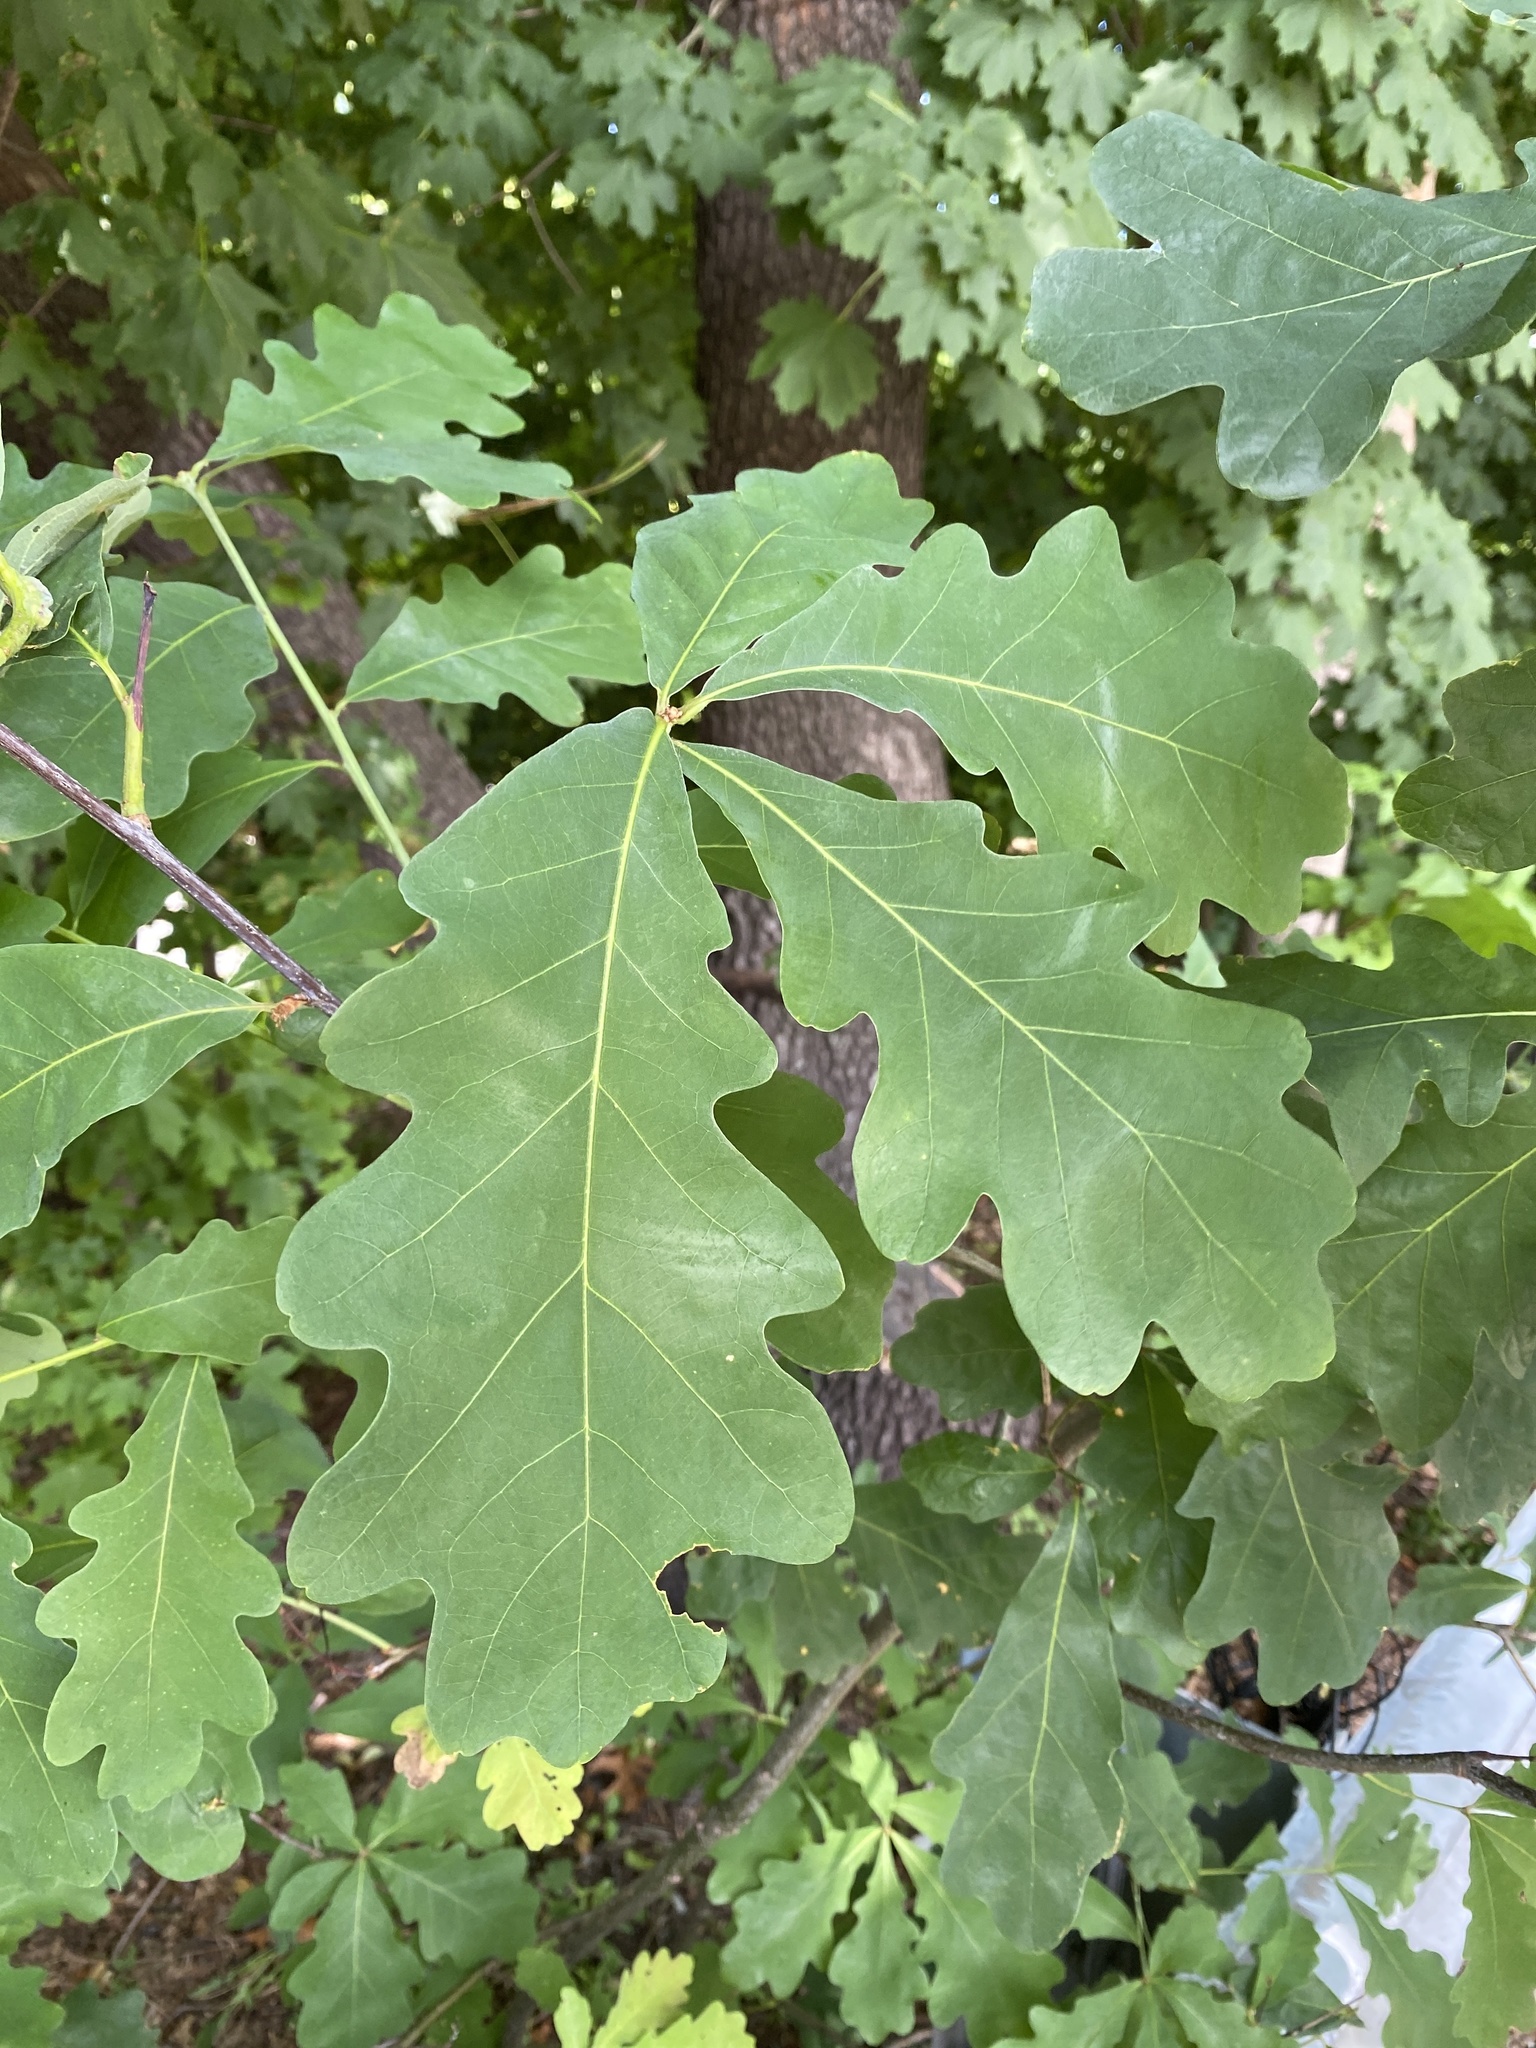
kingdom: Plantae
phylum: Tracheophyta
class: Magnoliopsida
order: Fagales
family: Fagaceae
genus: Quercus
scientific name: Quercus alba
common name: White oak
